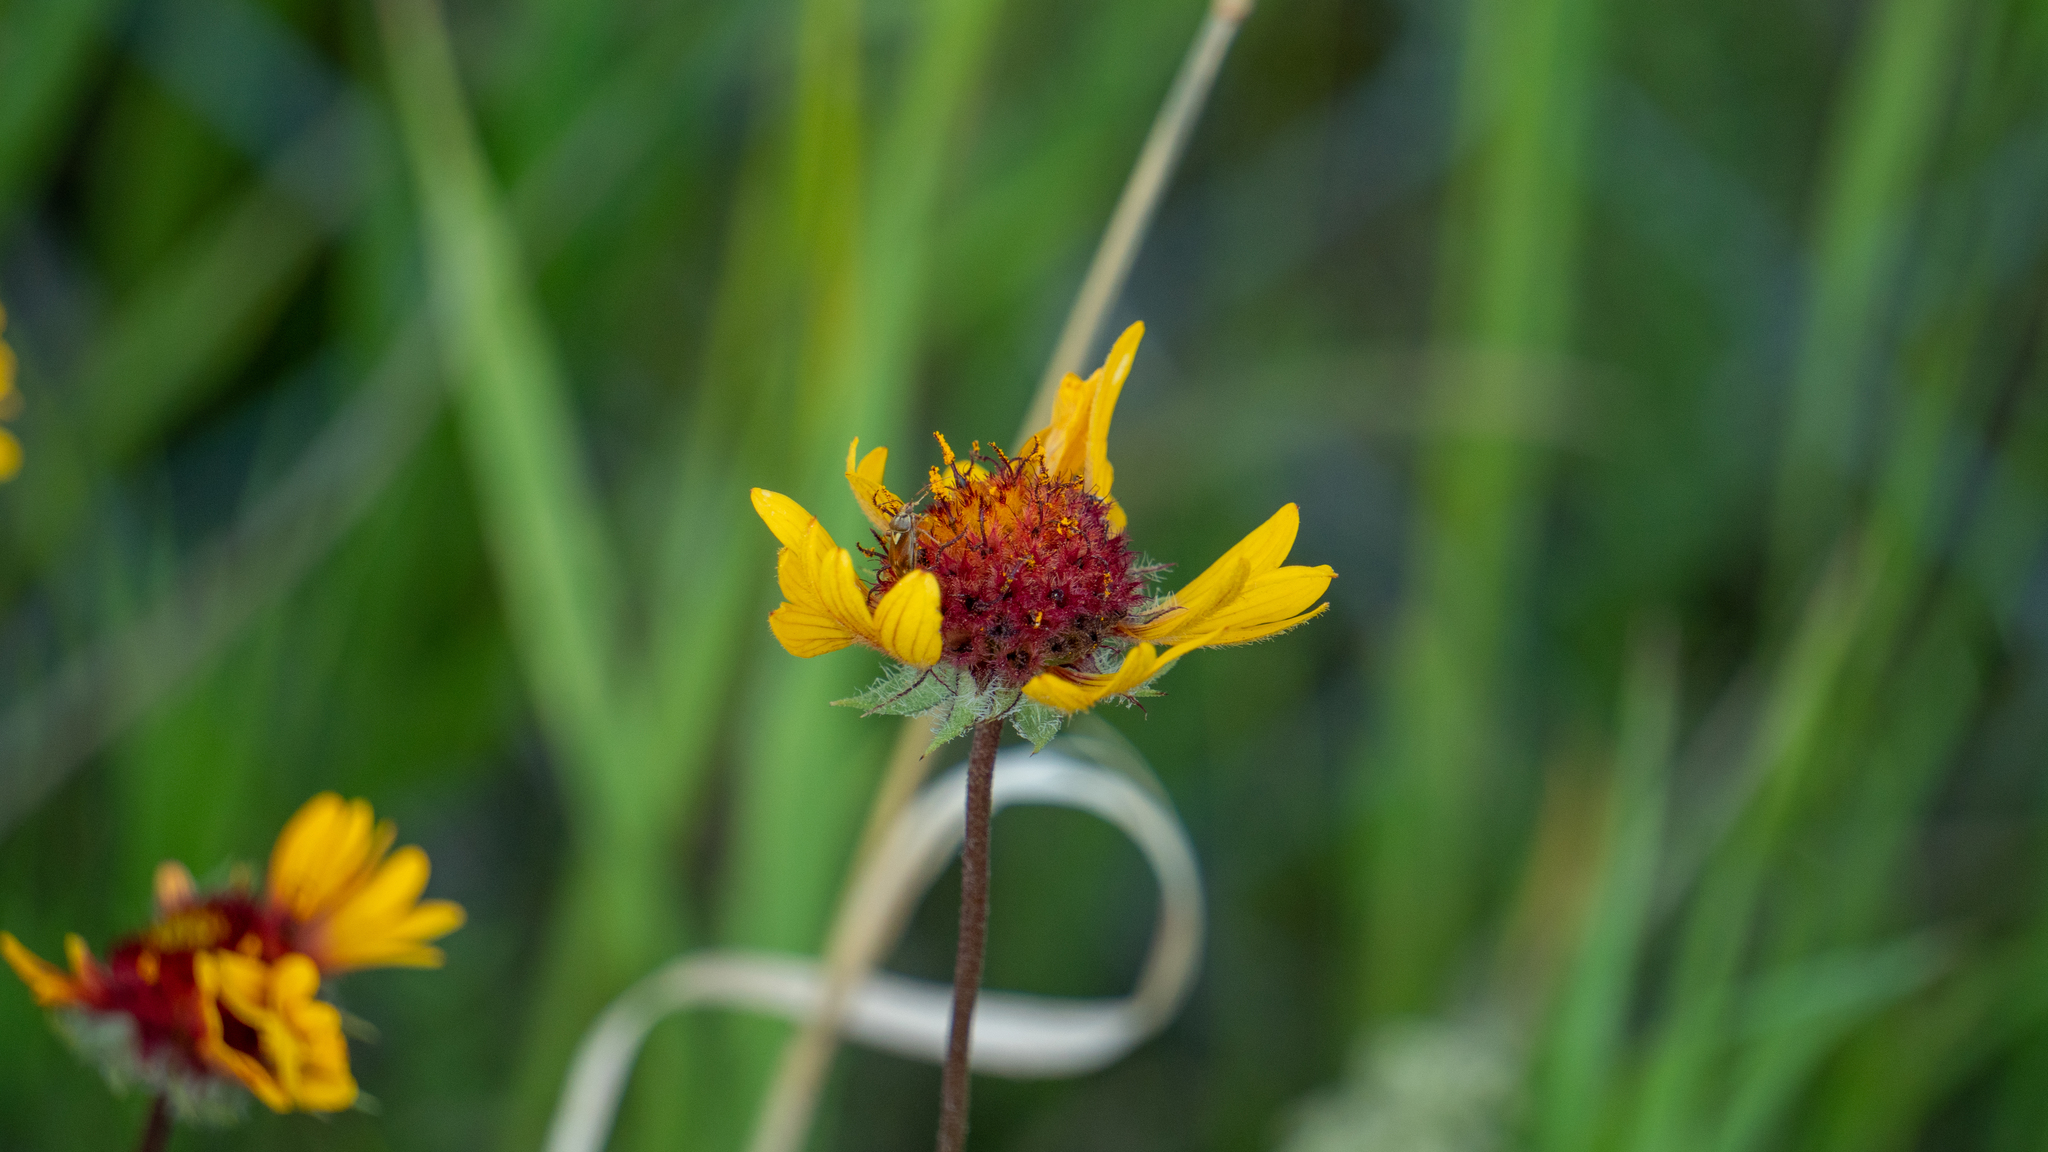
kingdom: Plantae
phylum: Tracheophyta
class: Magnoliopsida
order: Asterales
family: Asteraceae
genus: Gaillardia
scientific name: Gaillardia aristata
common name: Blanket-flower
